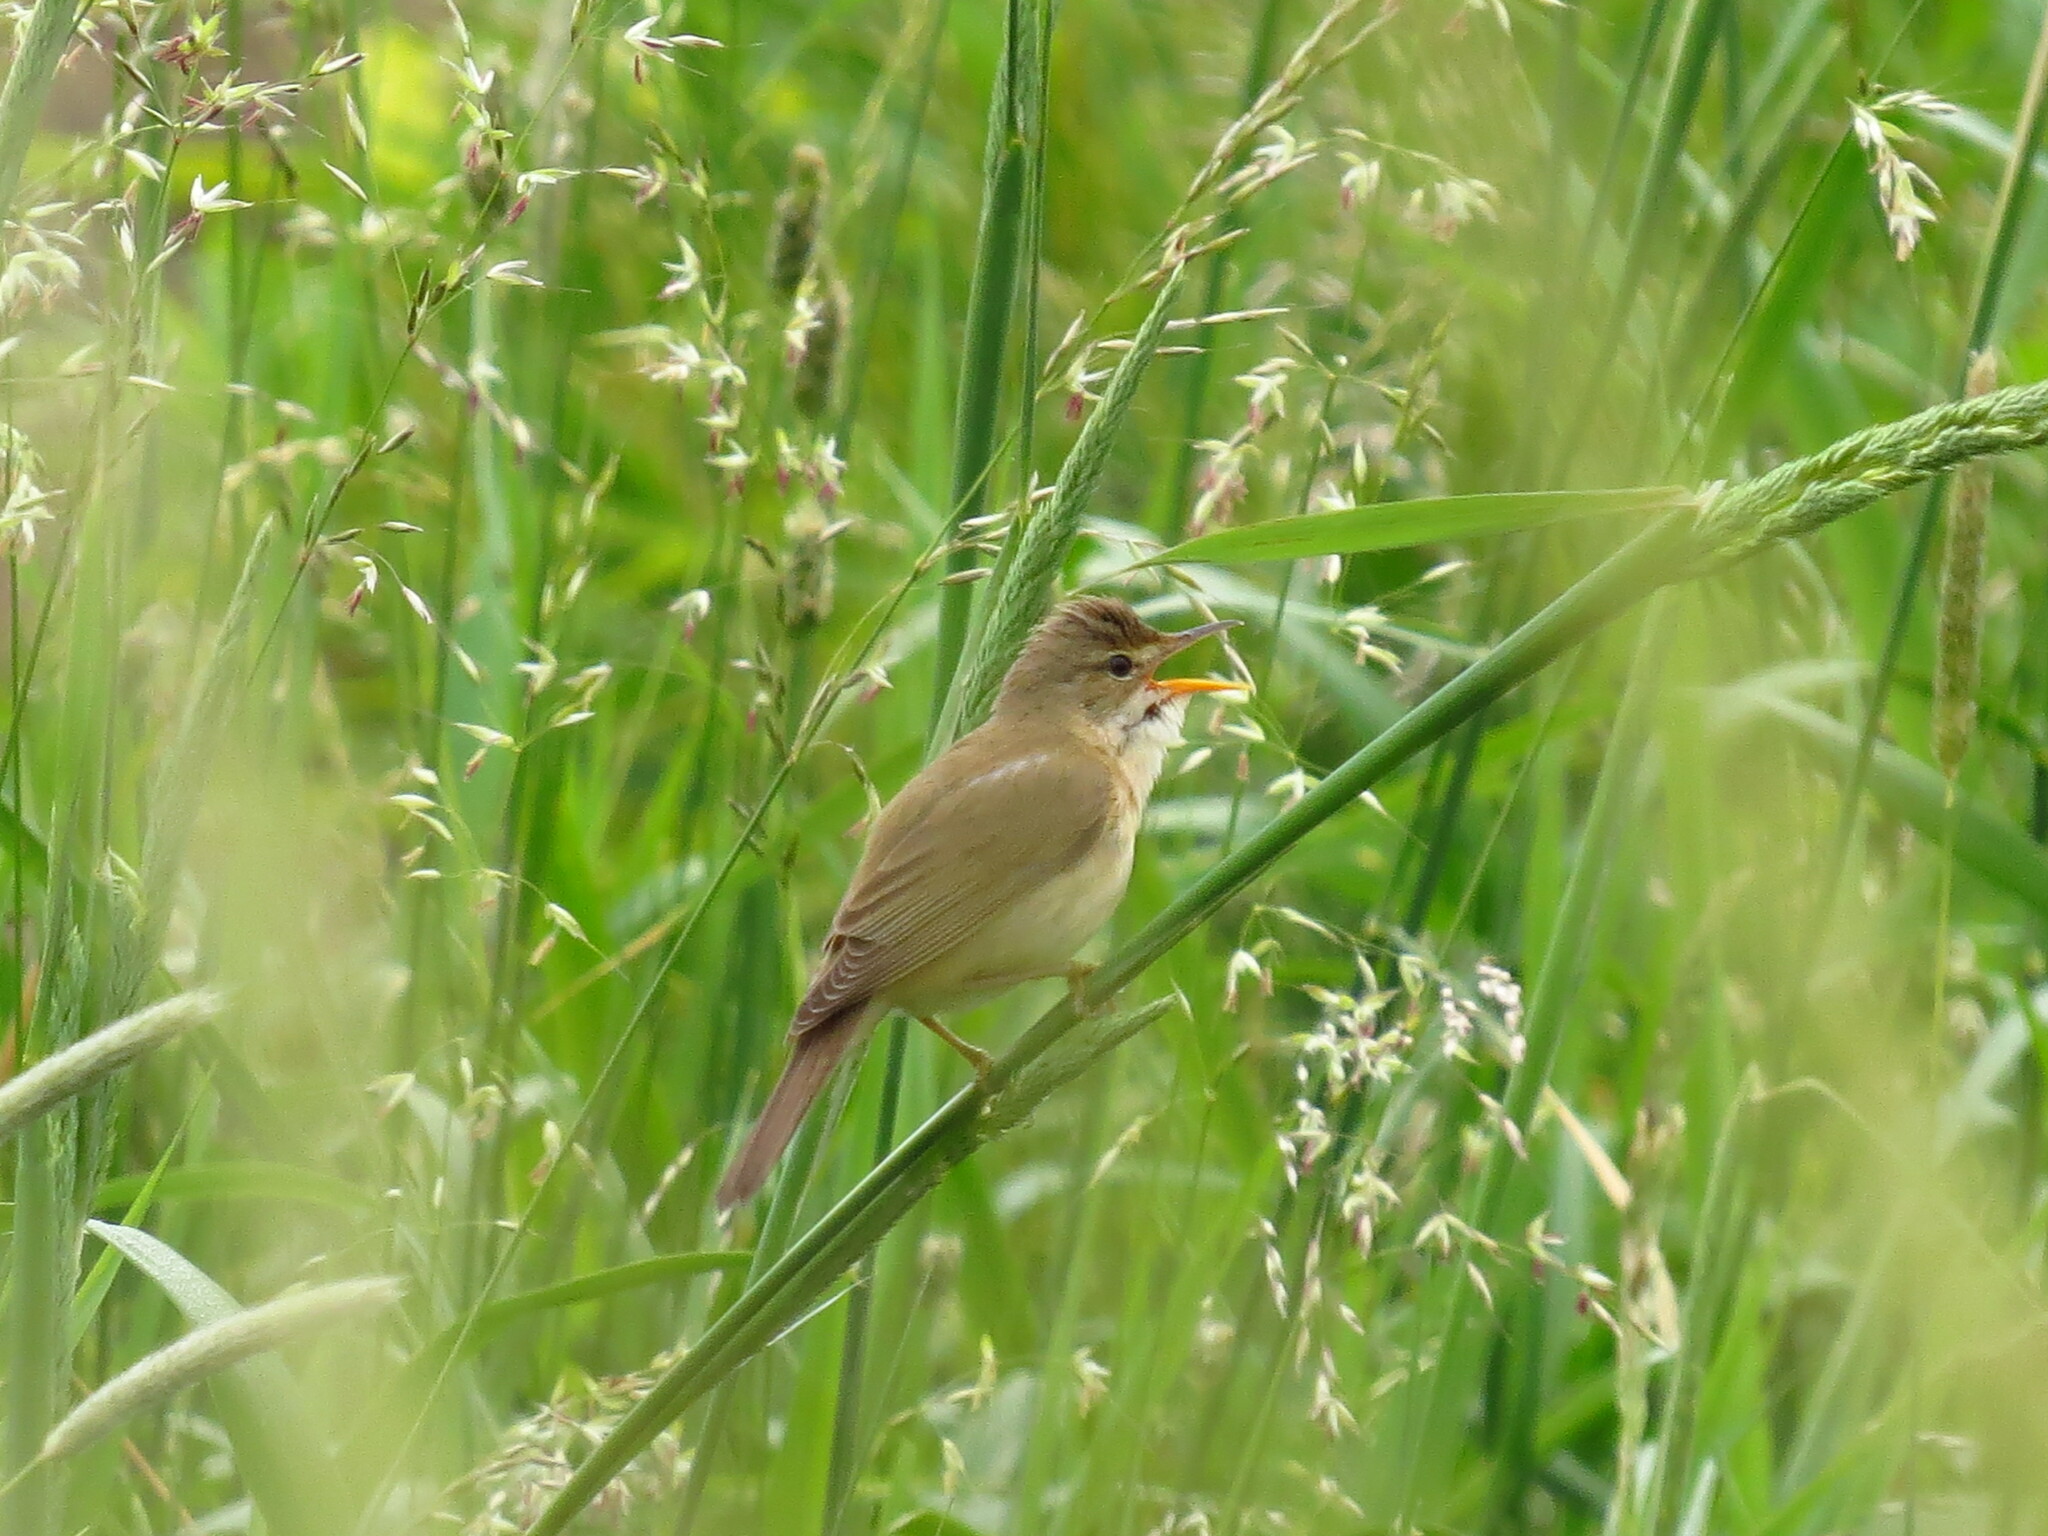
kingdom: Animalia
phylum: Chordata
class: Aves
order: Passeriformes
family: Acrocephalidae
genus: Acrocephalus
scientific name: Acrocephalus palustris
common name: Marsh warbler
